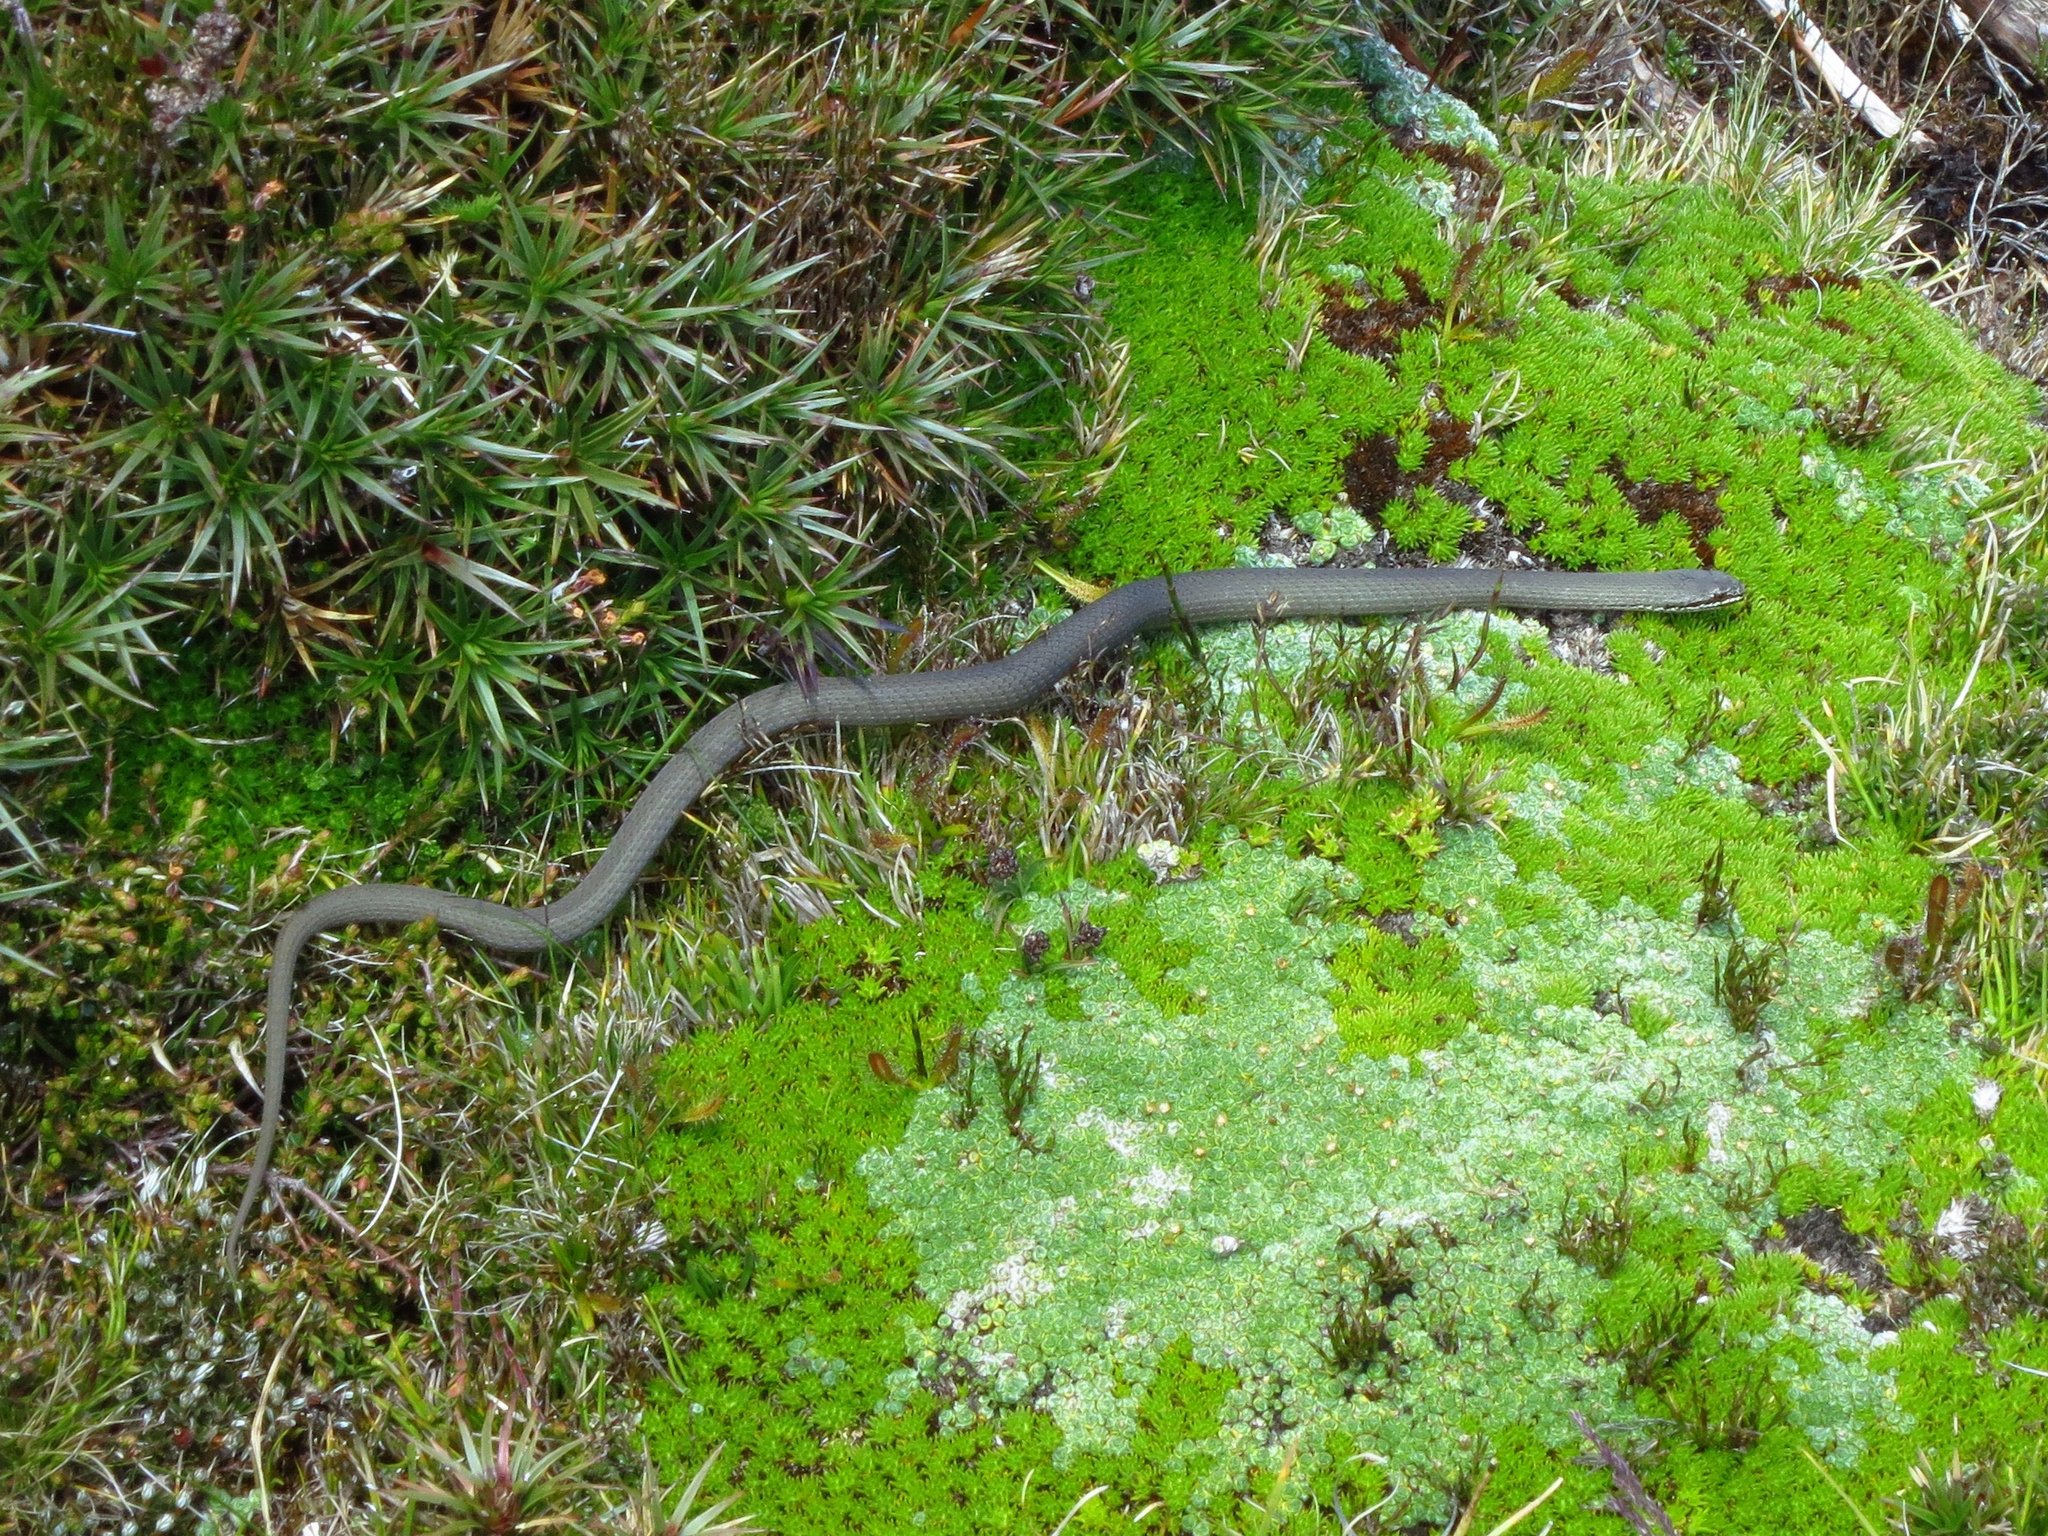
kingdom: Animalia
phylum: Chordata
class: Squamata
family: Elapidae
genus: Drysdalia
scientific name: Drysdalia coronoides
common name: White-lipped snake
